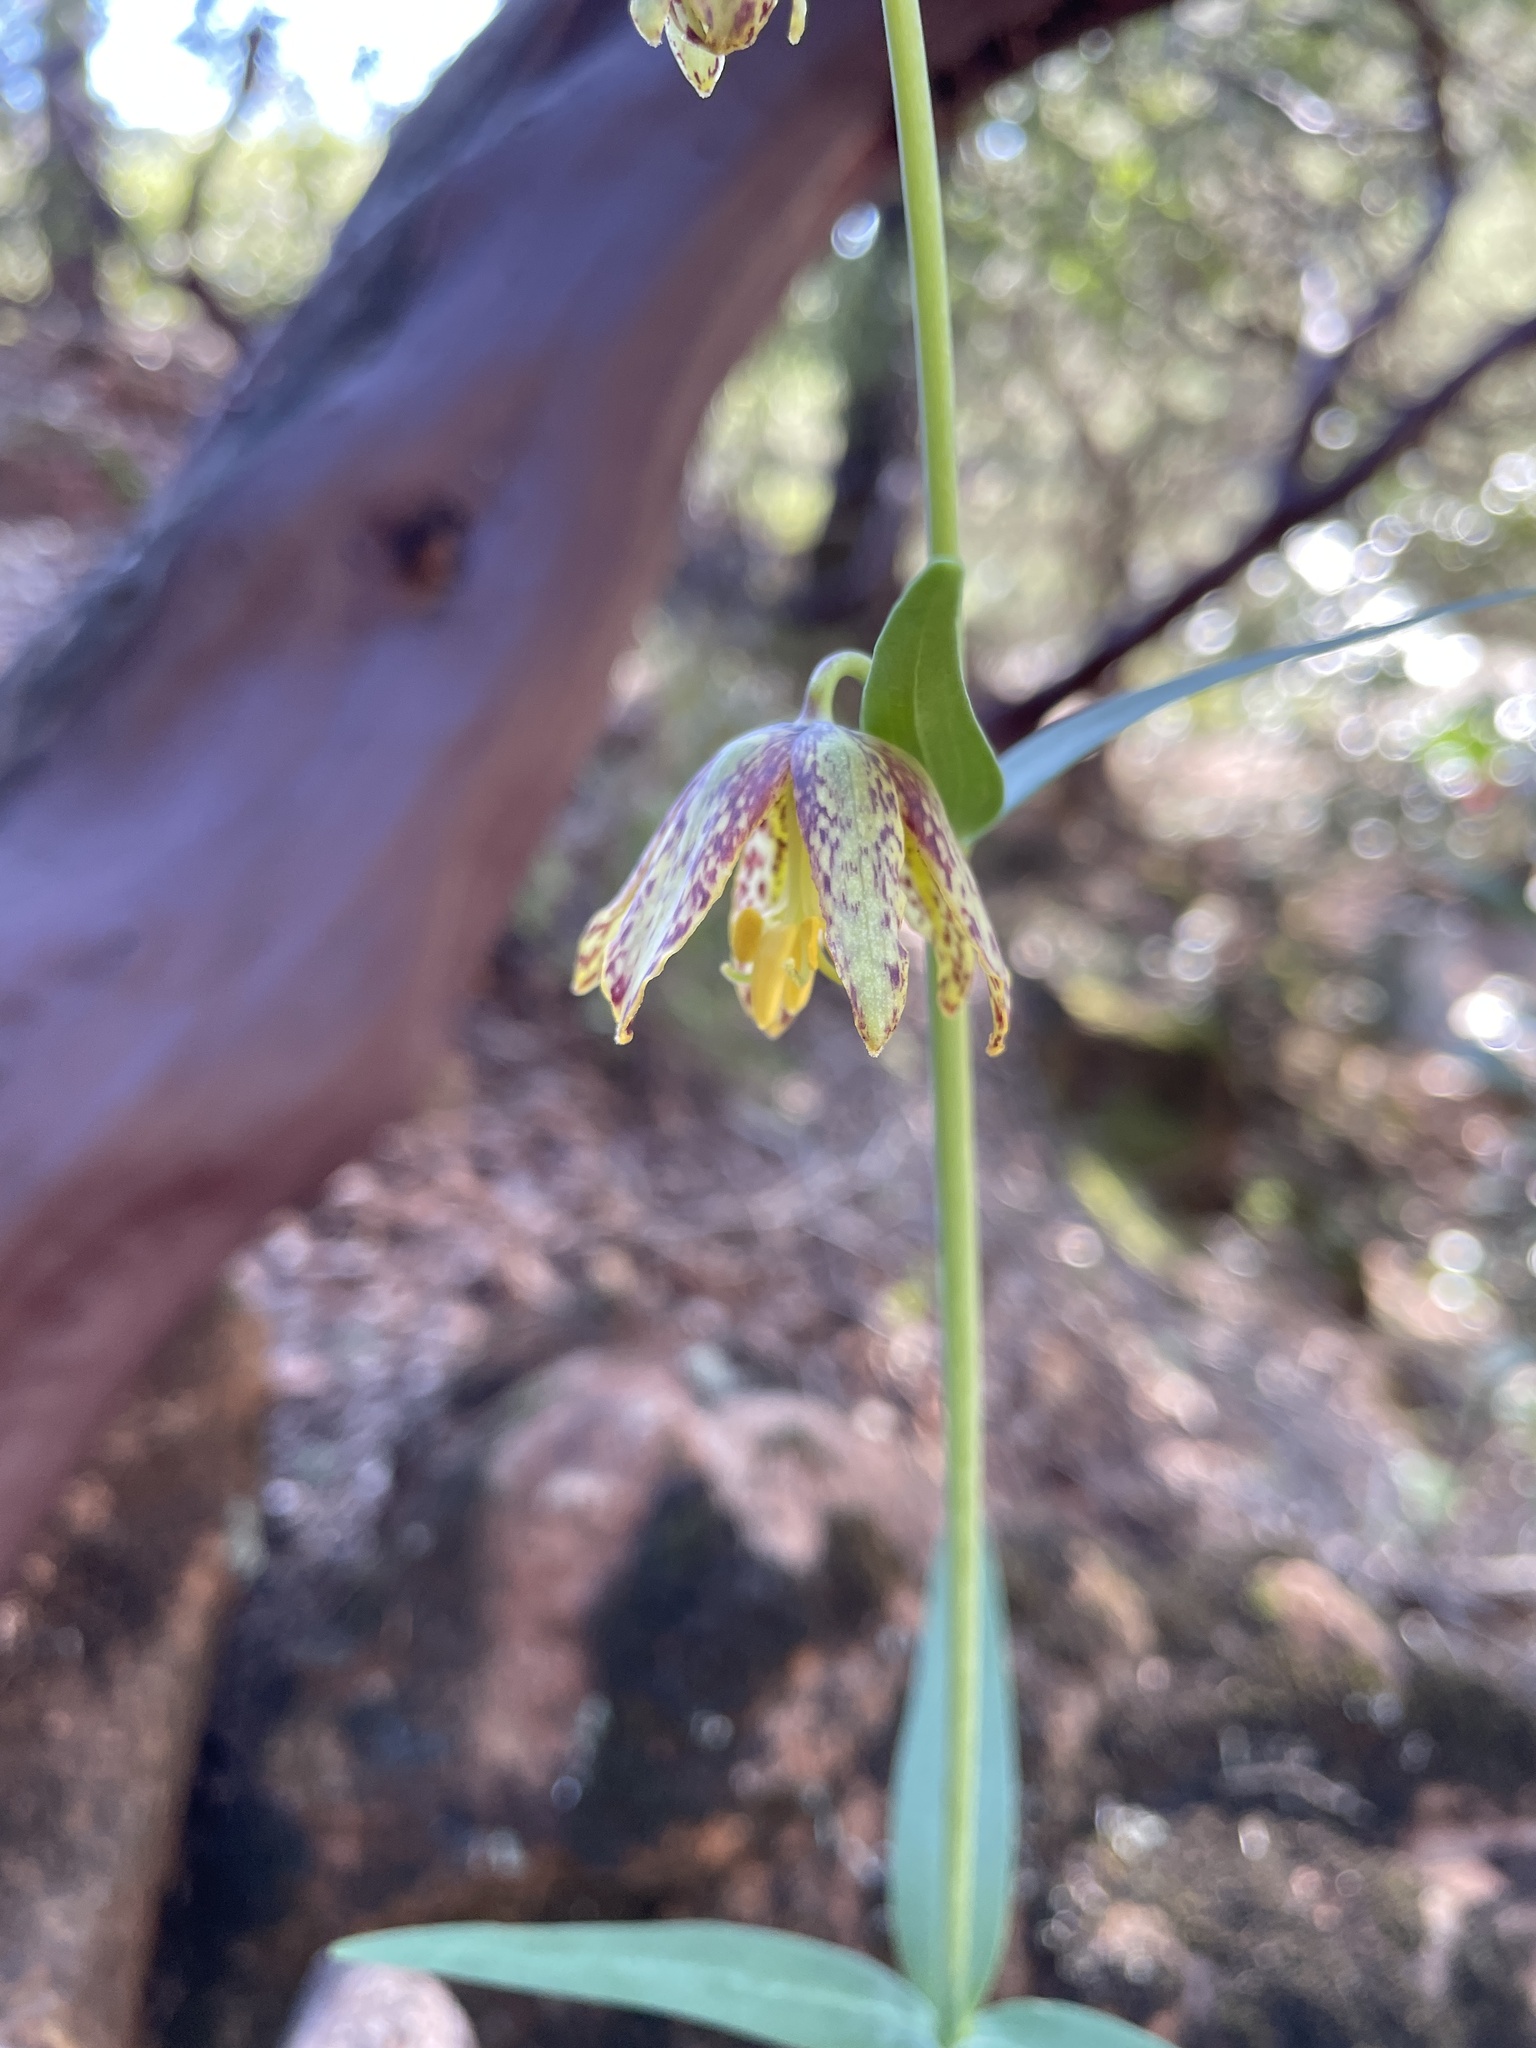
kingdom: Plantae
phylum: Tracheophyta
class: Liliopsida
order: Liliales
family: Liliaceae
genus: Fritillaria
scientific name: Fritillaria affinis
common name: Ojai fritillary
